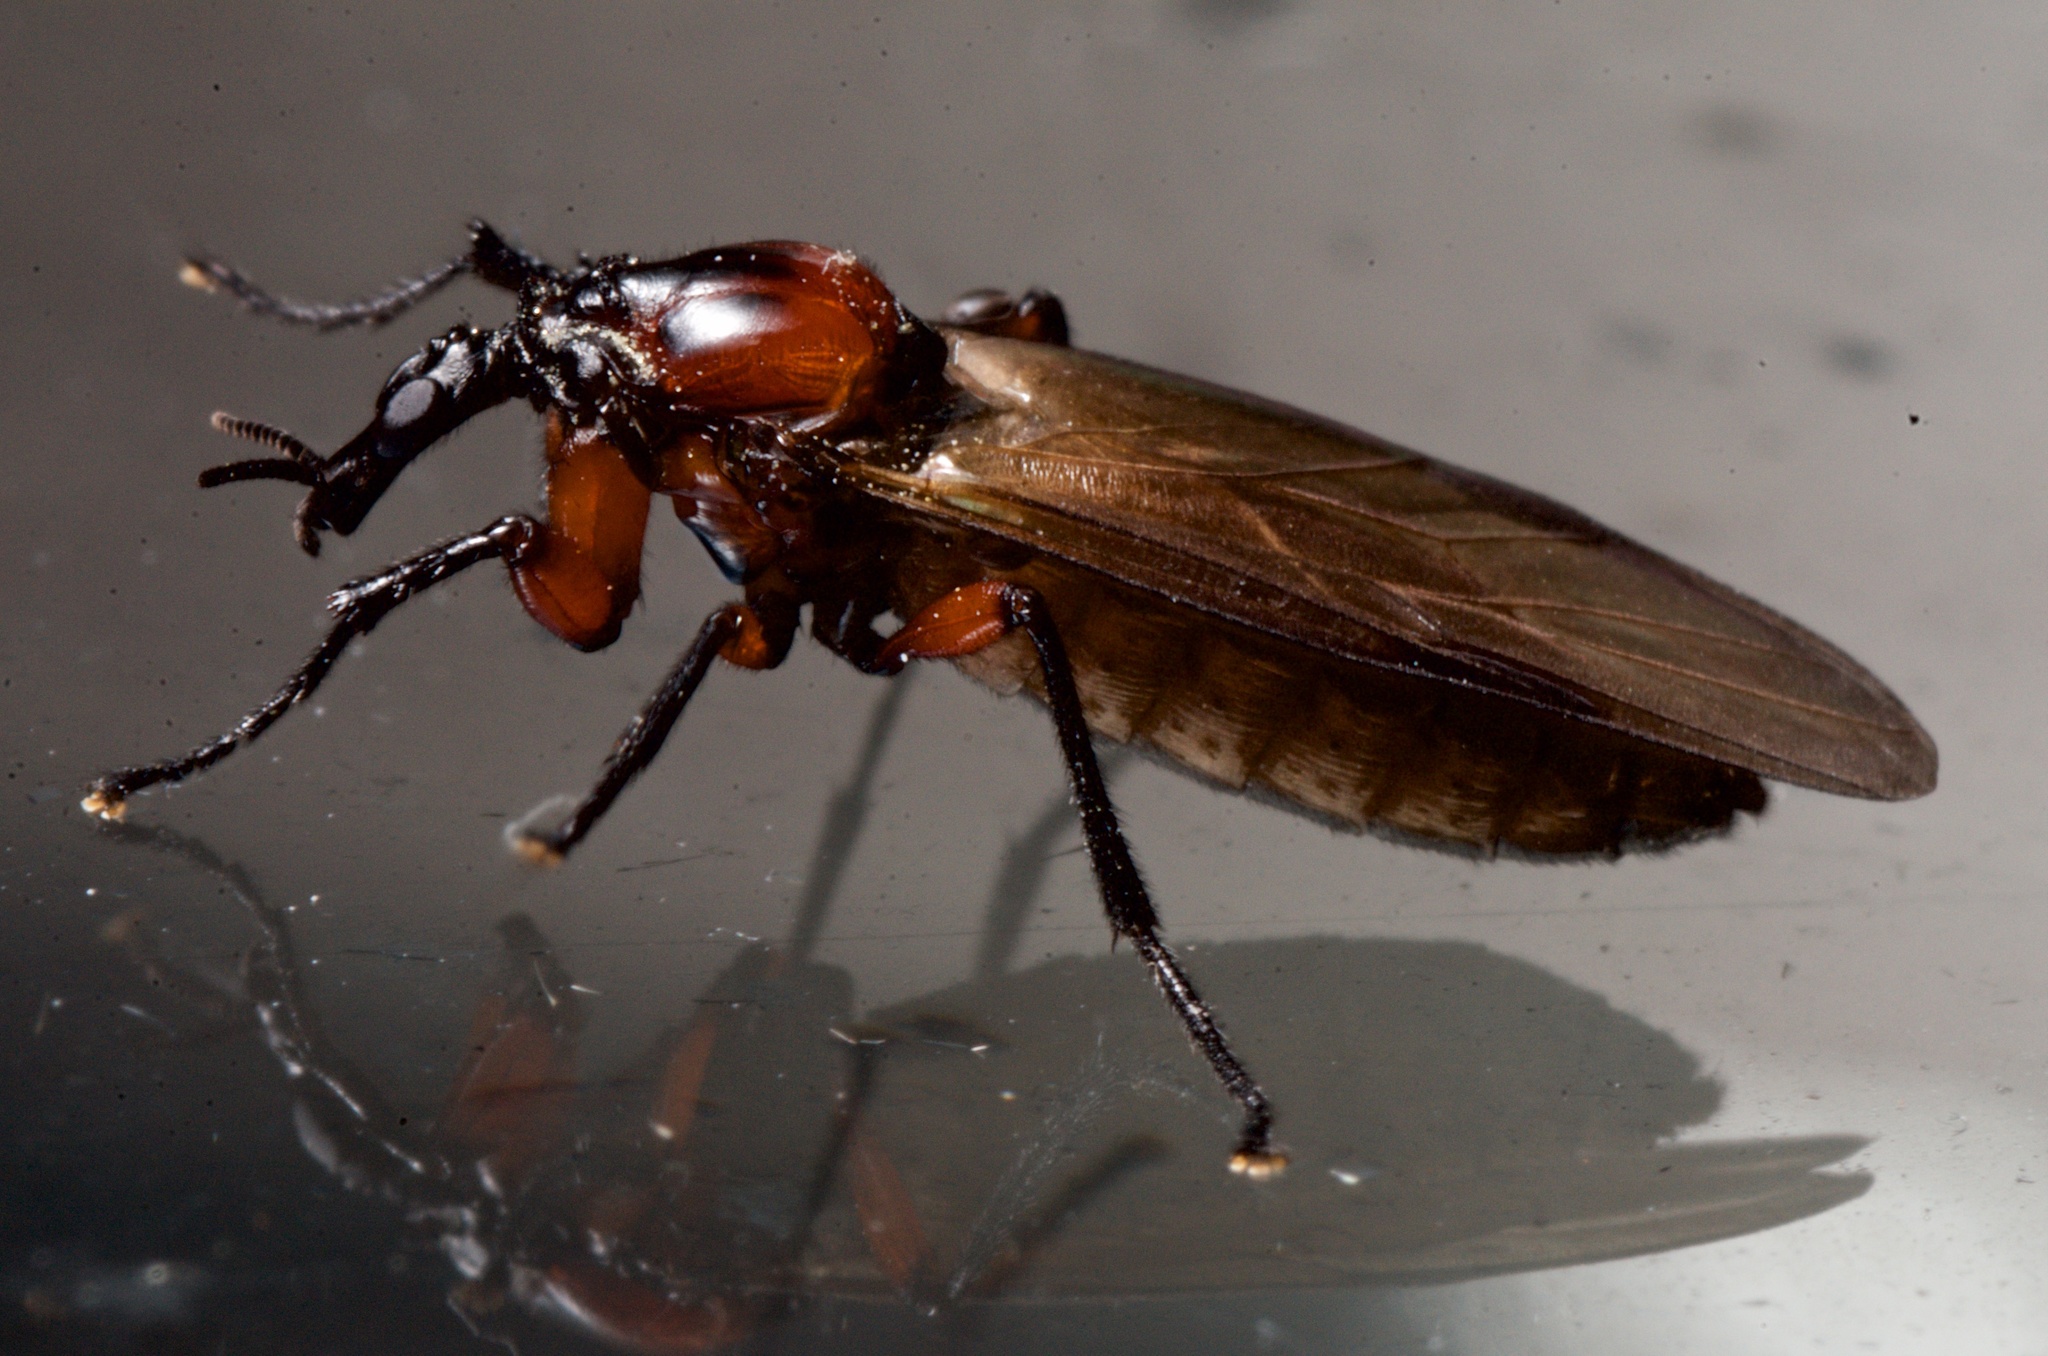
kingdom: Animalia
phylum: Arthropoda
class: Insecta
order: Diptera
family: Bibionidae
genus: Dilophus
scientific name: Dilophus nigrostigma
